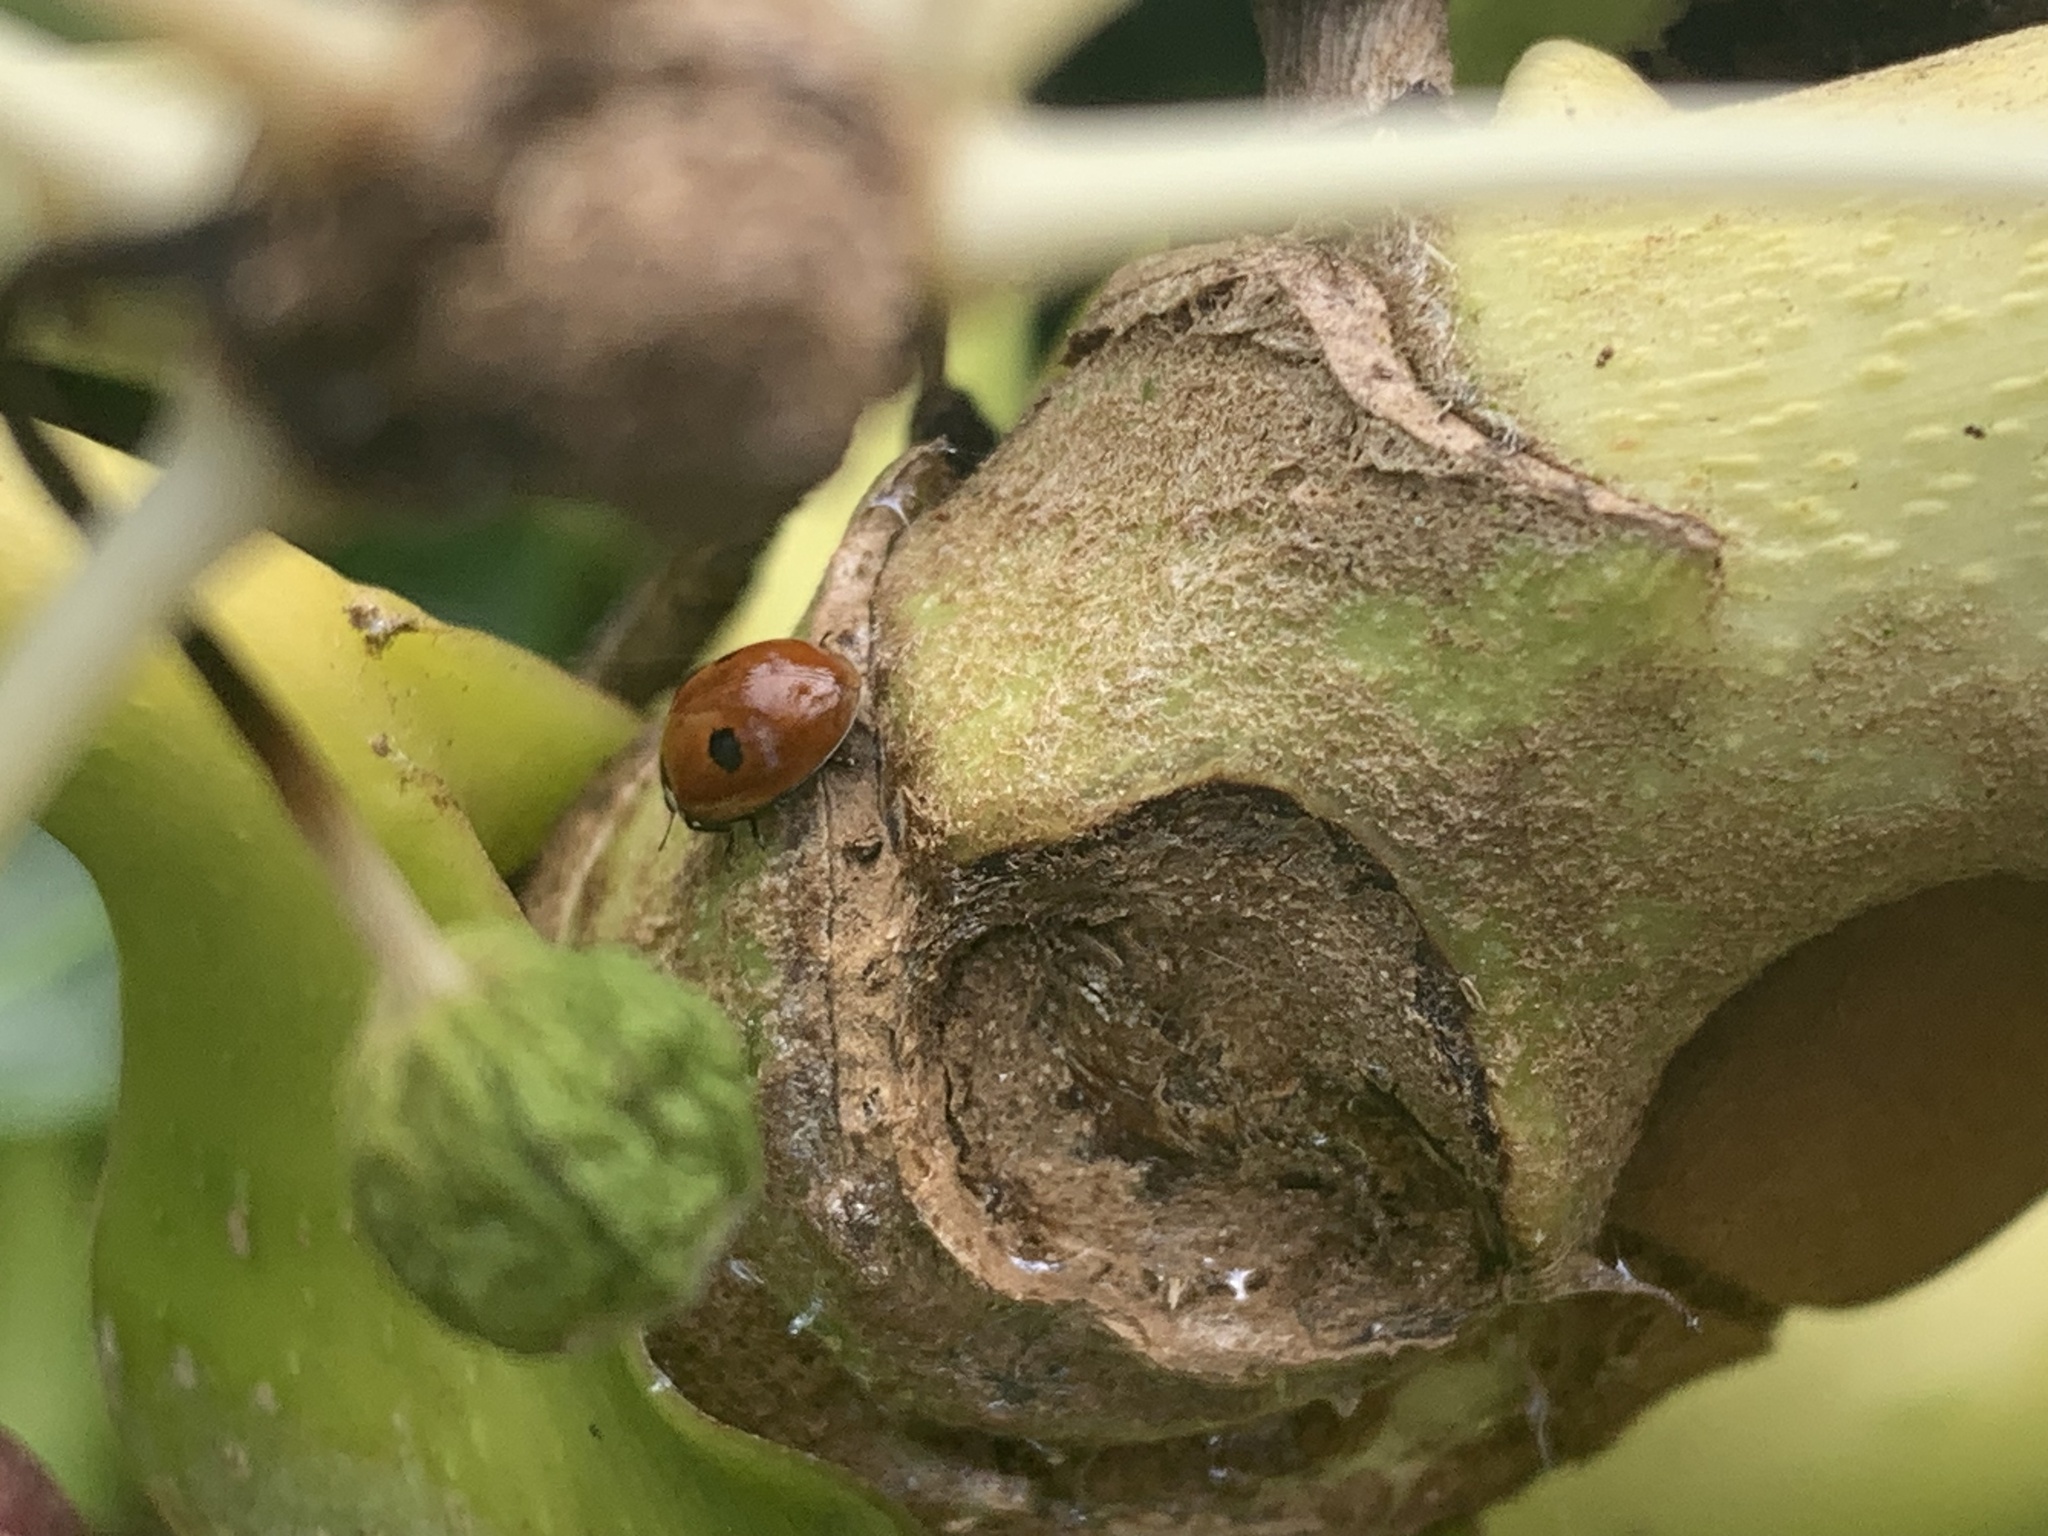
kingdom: Animalia
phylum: Arthropoda
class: Insecta
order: Coleoptera
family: Coccinellidae
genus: Adalia
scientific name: Adalia bipunctata
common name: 2-spot ladybird
